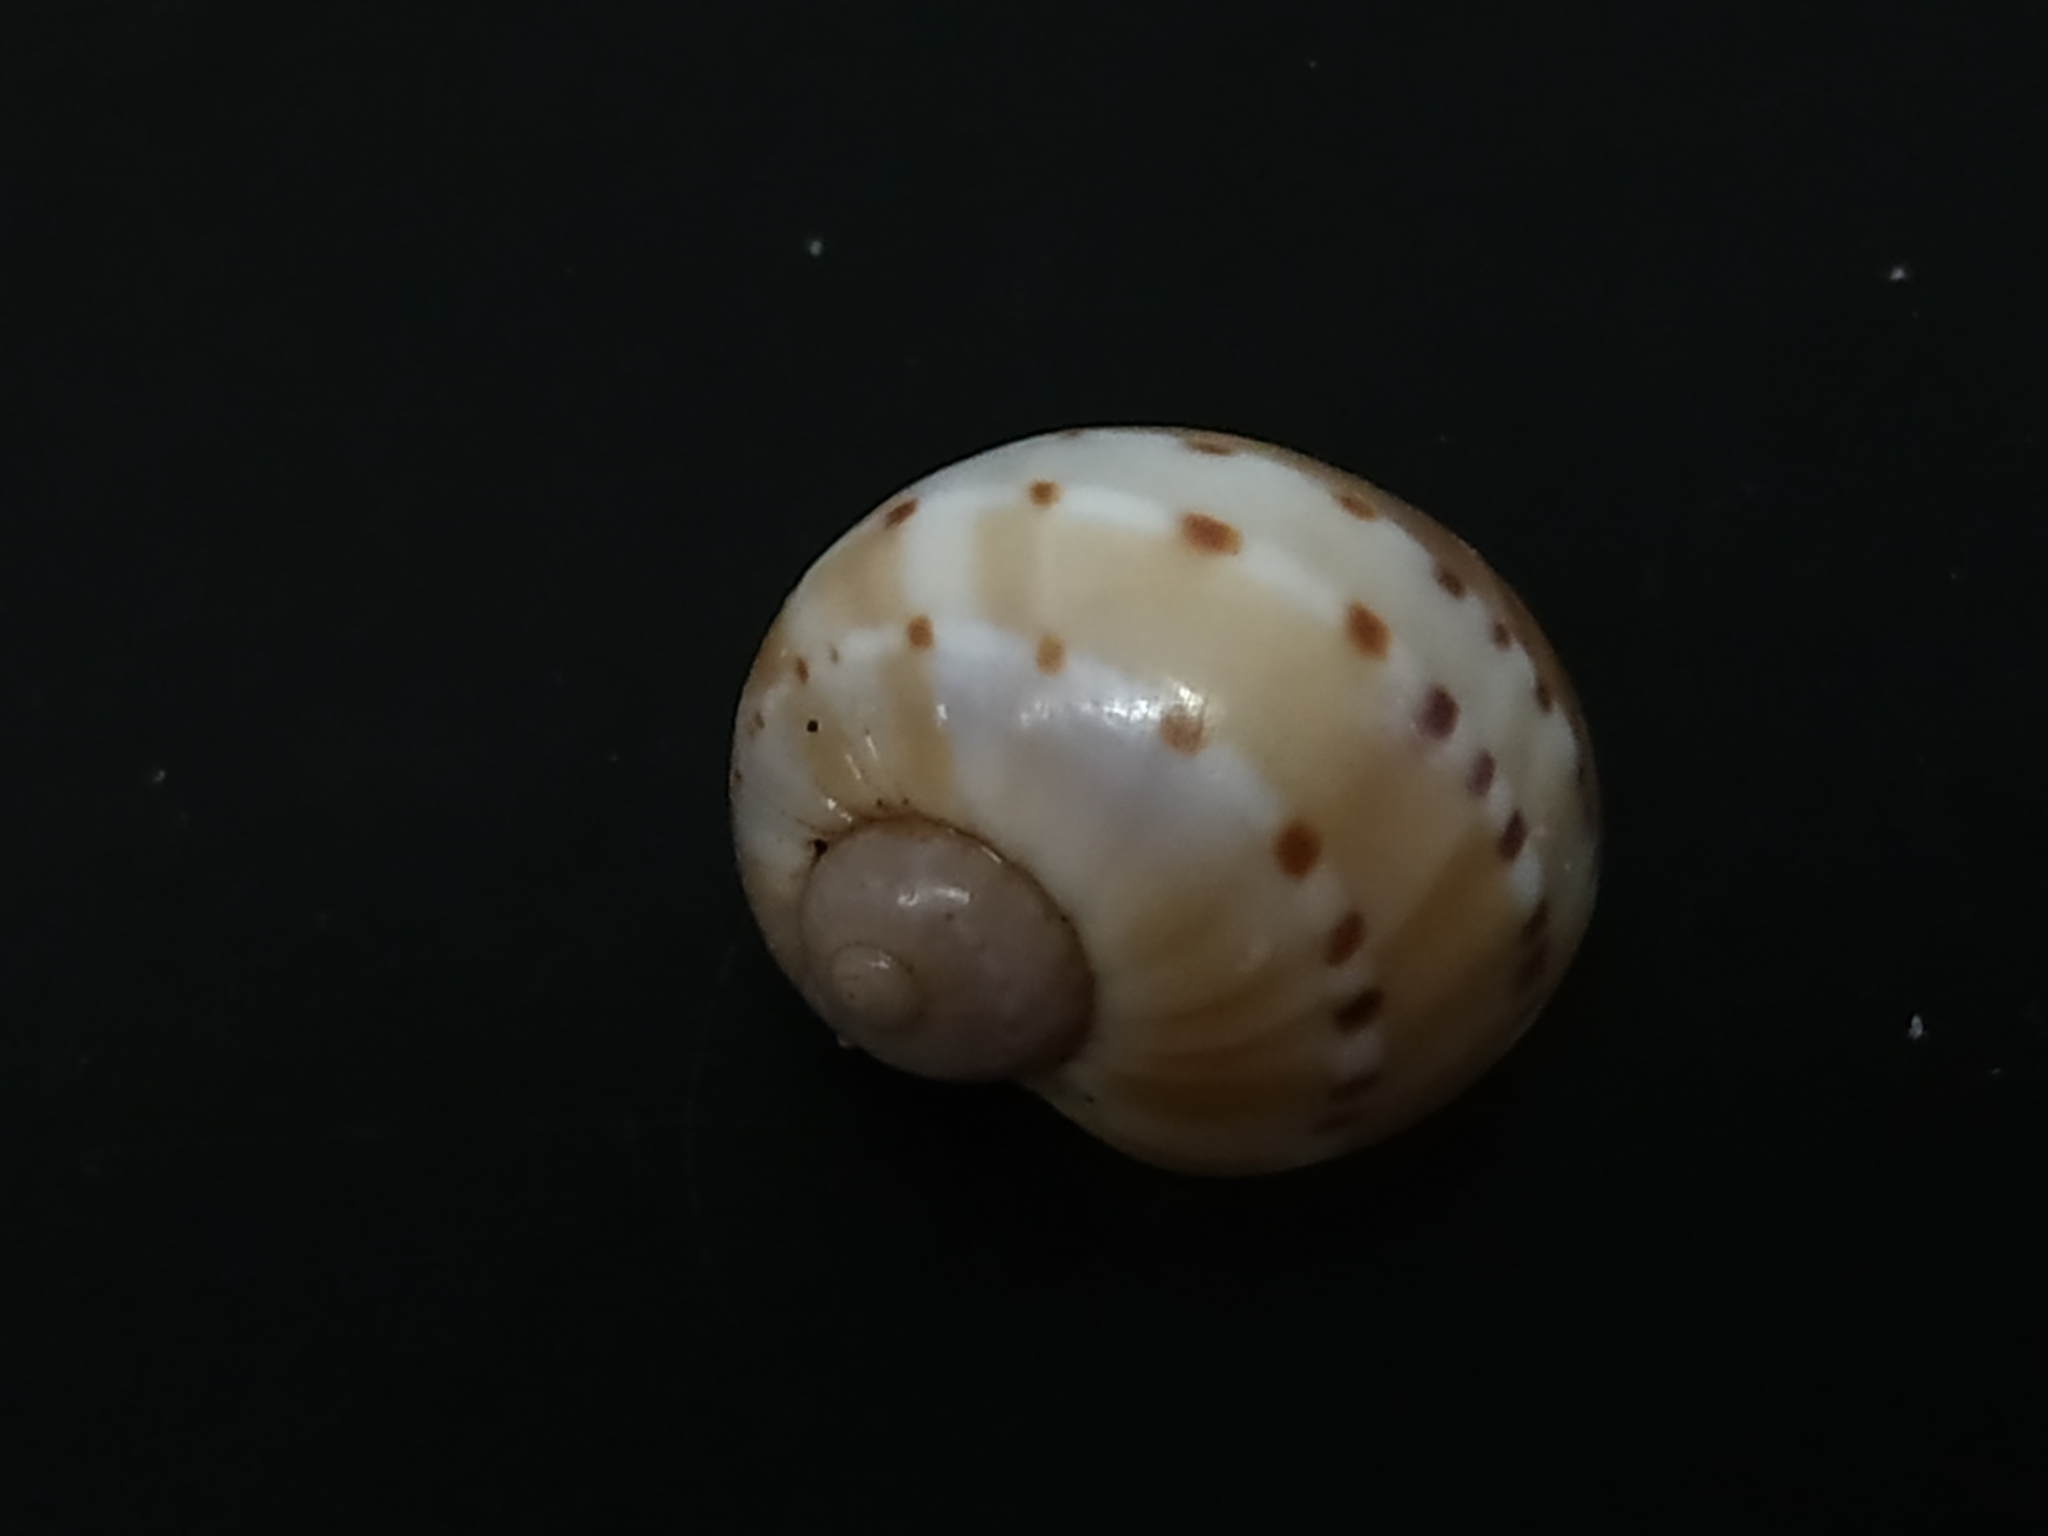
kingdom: Animalia
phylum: Mollusca
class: Gastropoda
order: Littorinimorpha
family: Naticidae
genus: Glyphepithema
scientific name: Glyphepithema alapapilionis
